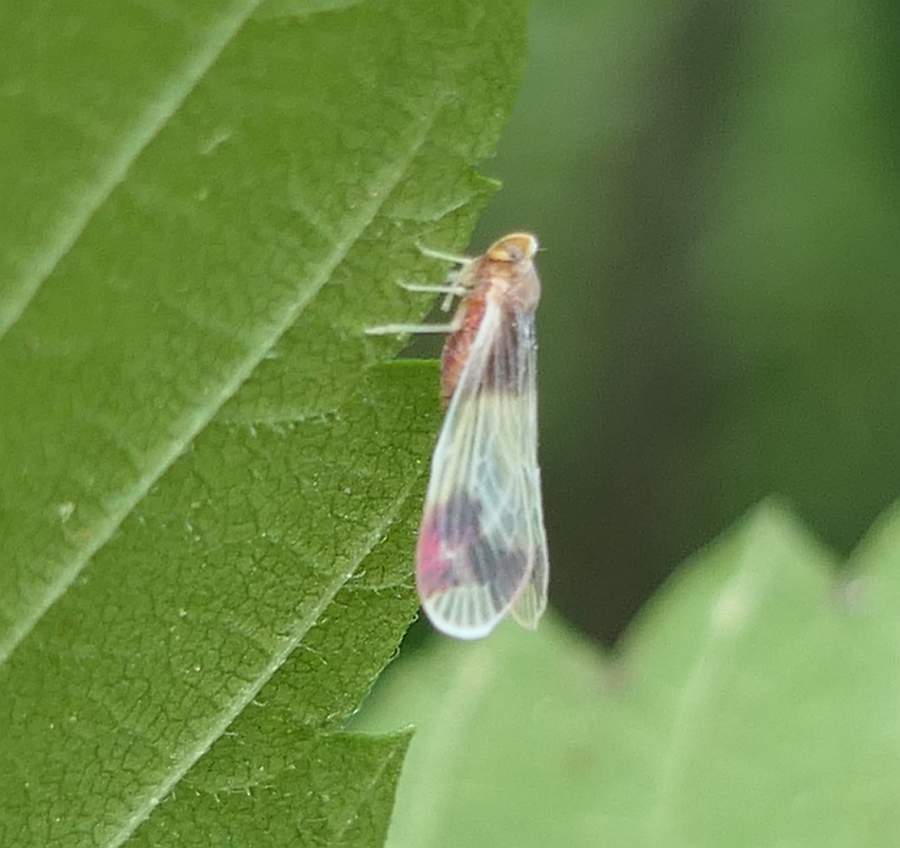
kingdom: Animalia
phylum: Arthropoda
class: Insecta
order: Hemiptera
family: Derbidae
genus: Anotia
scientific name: Anotia uhleri
